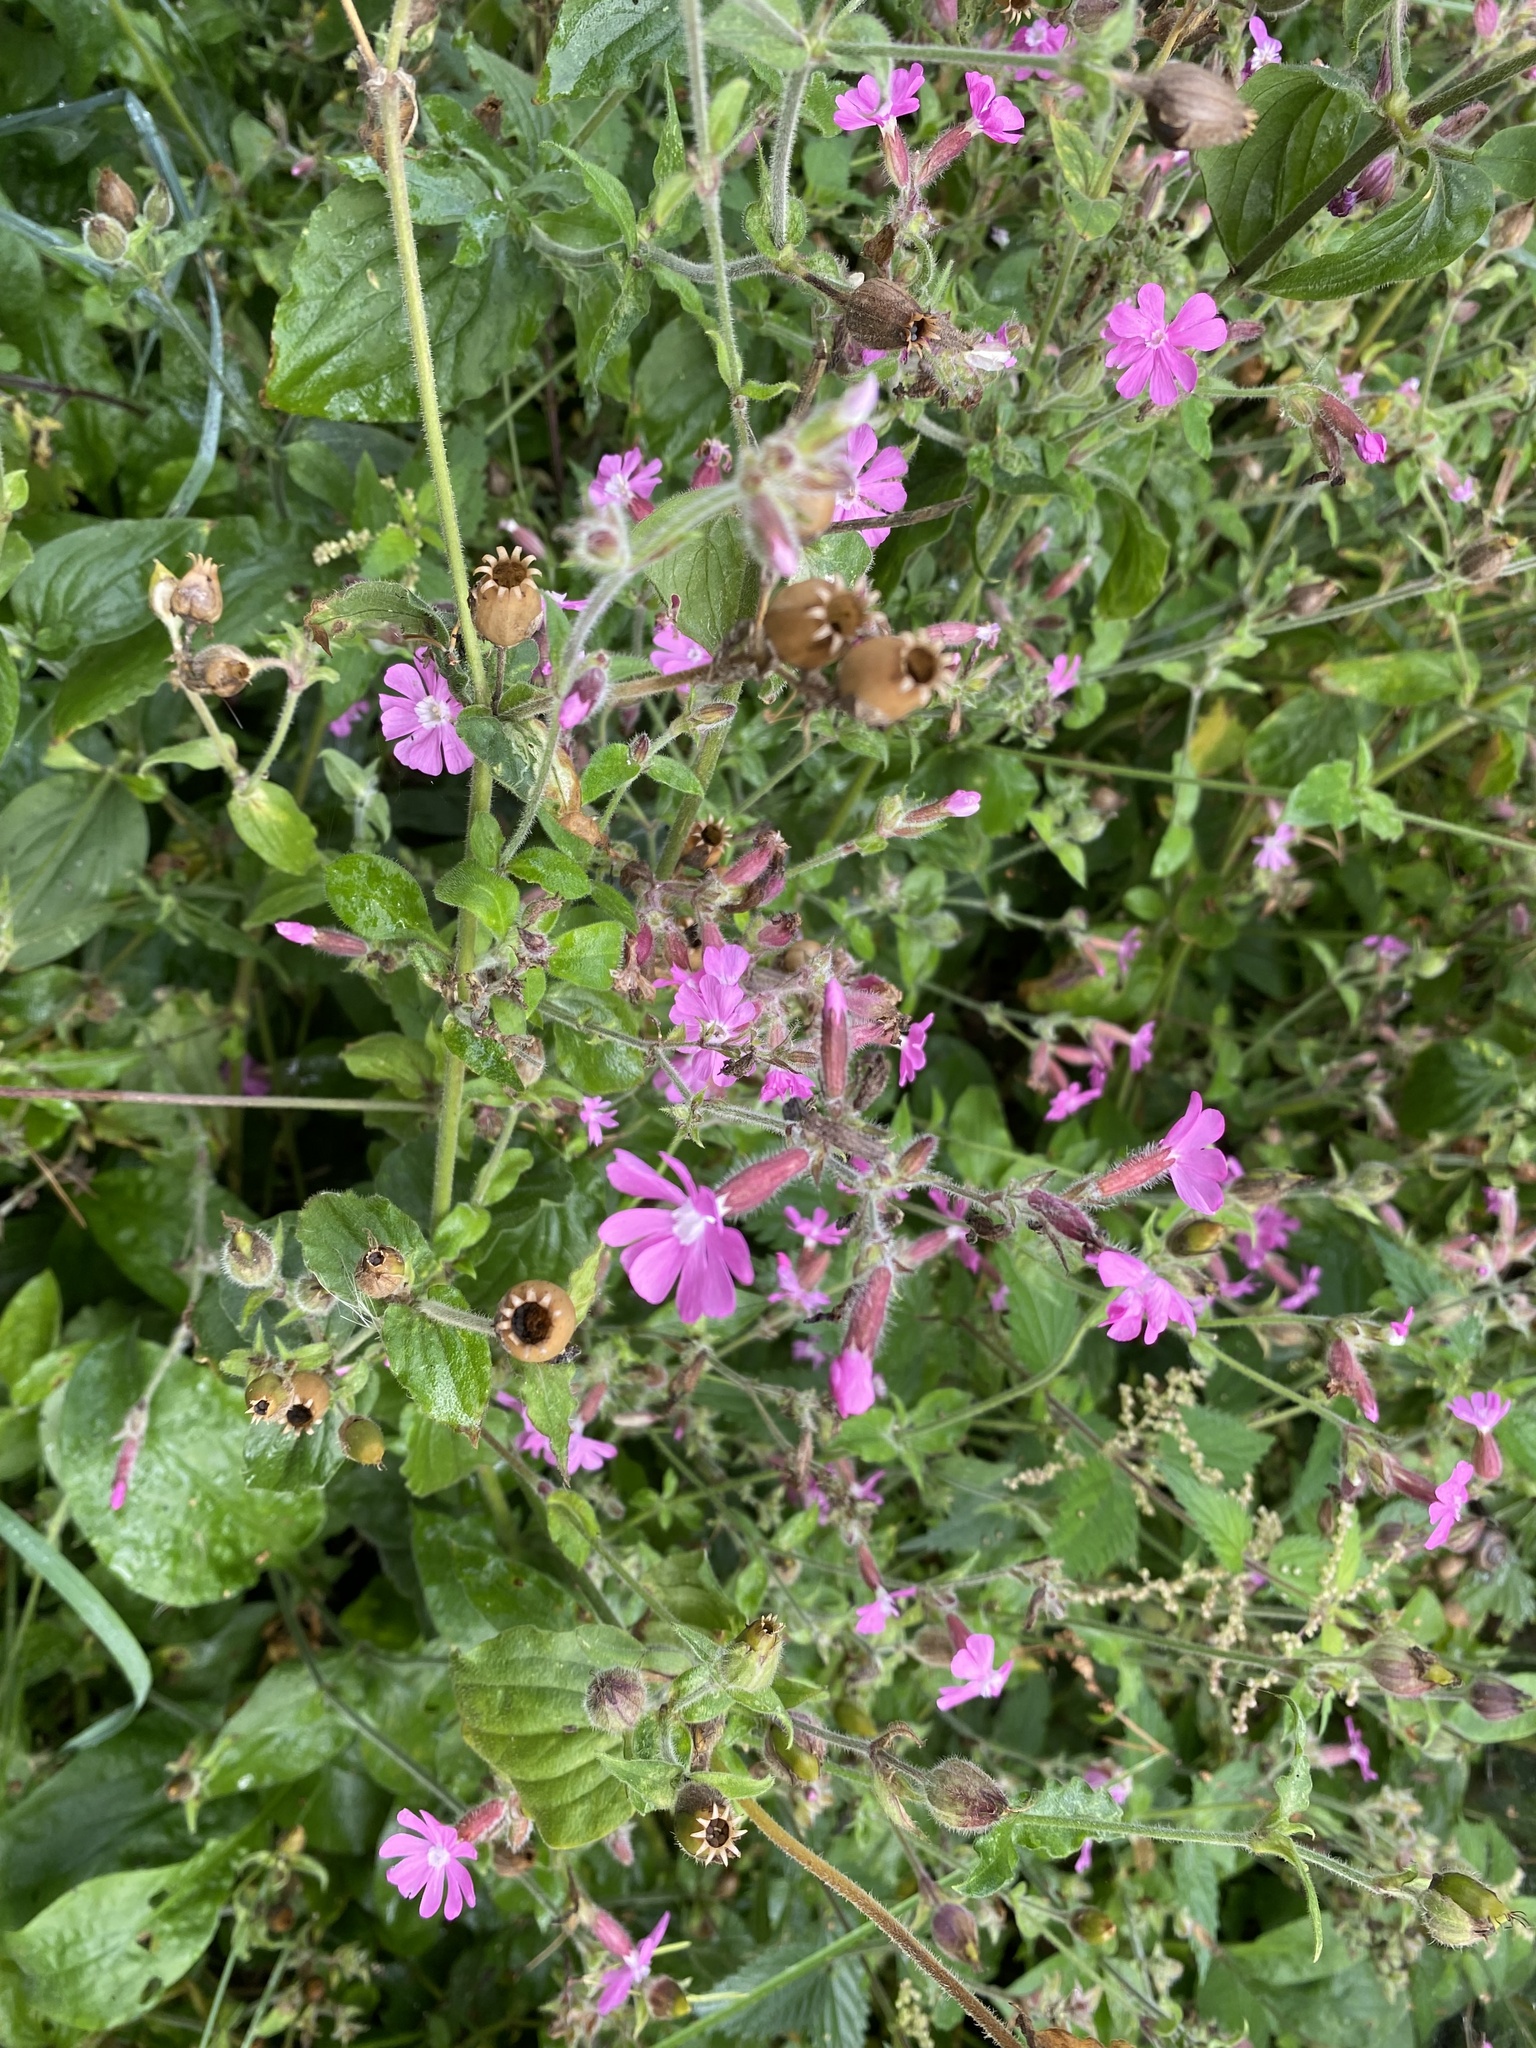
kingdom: Plantae
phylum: Tracheophyta
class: Magnoliopsida
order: Caryophyllales
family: Caryophyllaceae
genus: Silene
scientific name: Silene dioica
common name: Red campion
